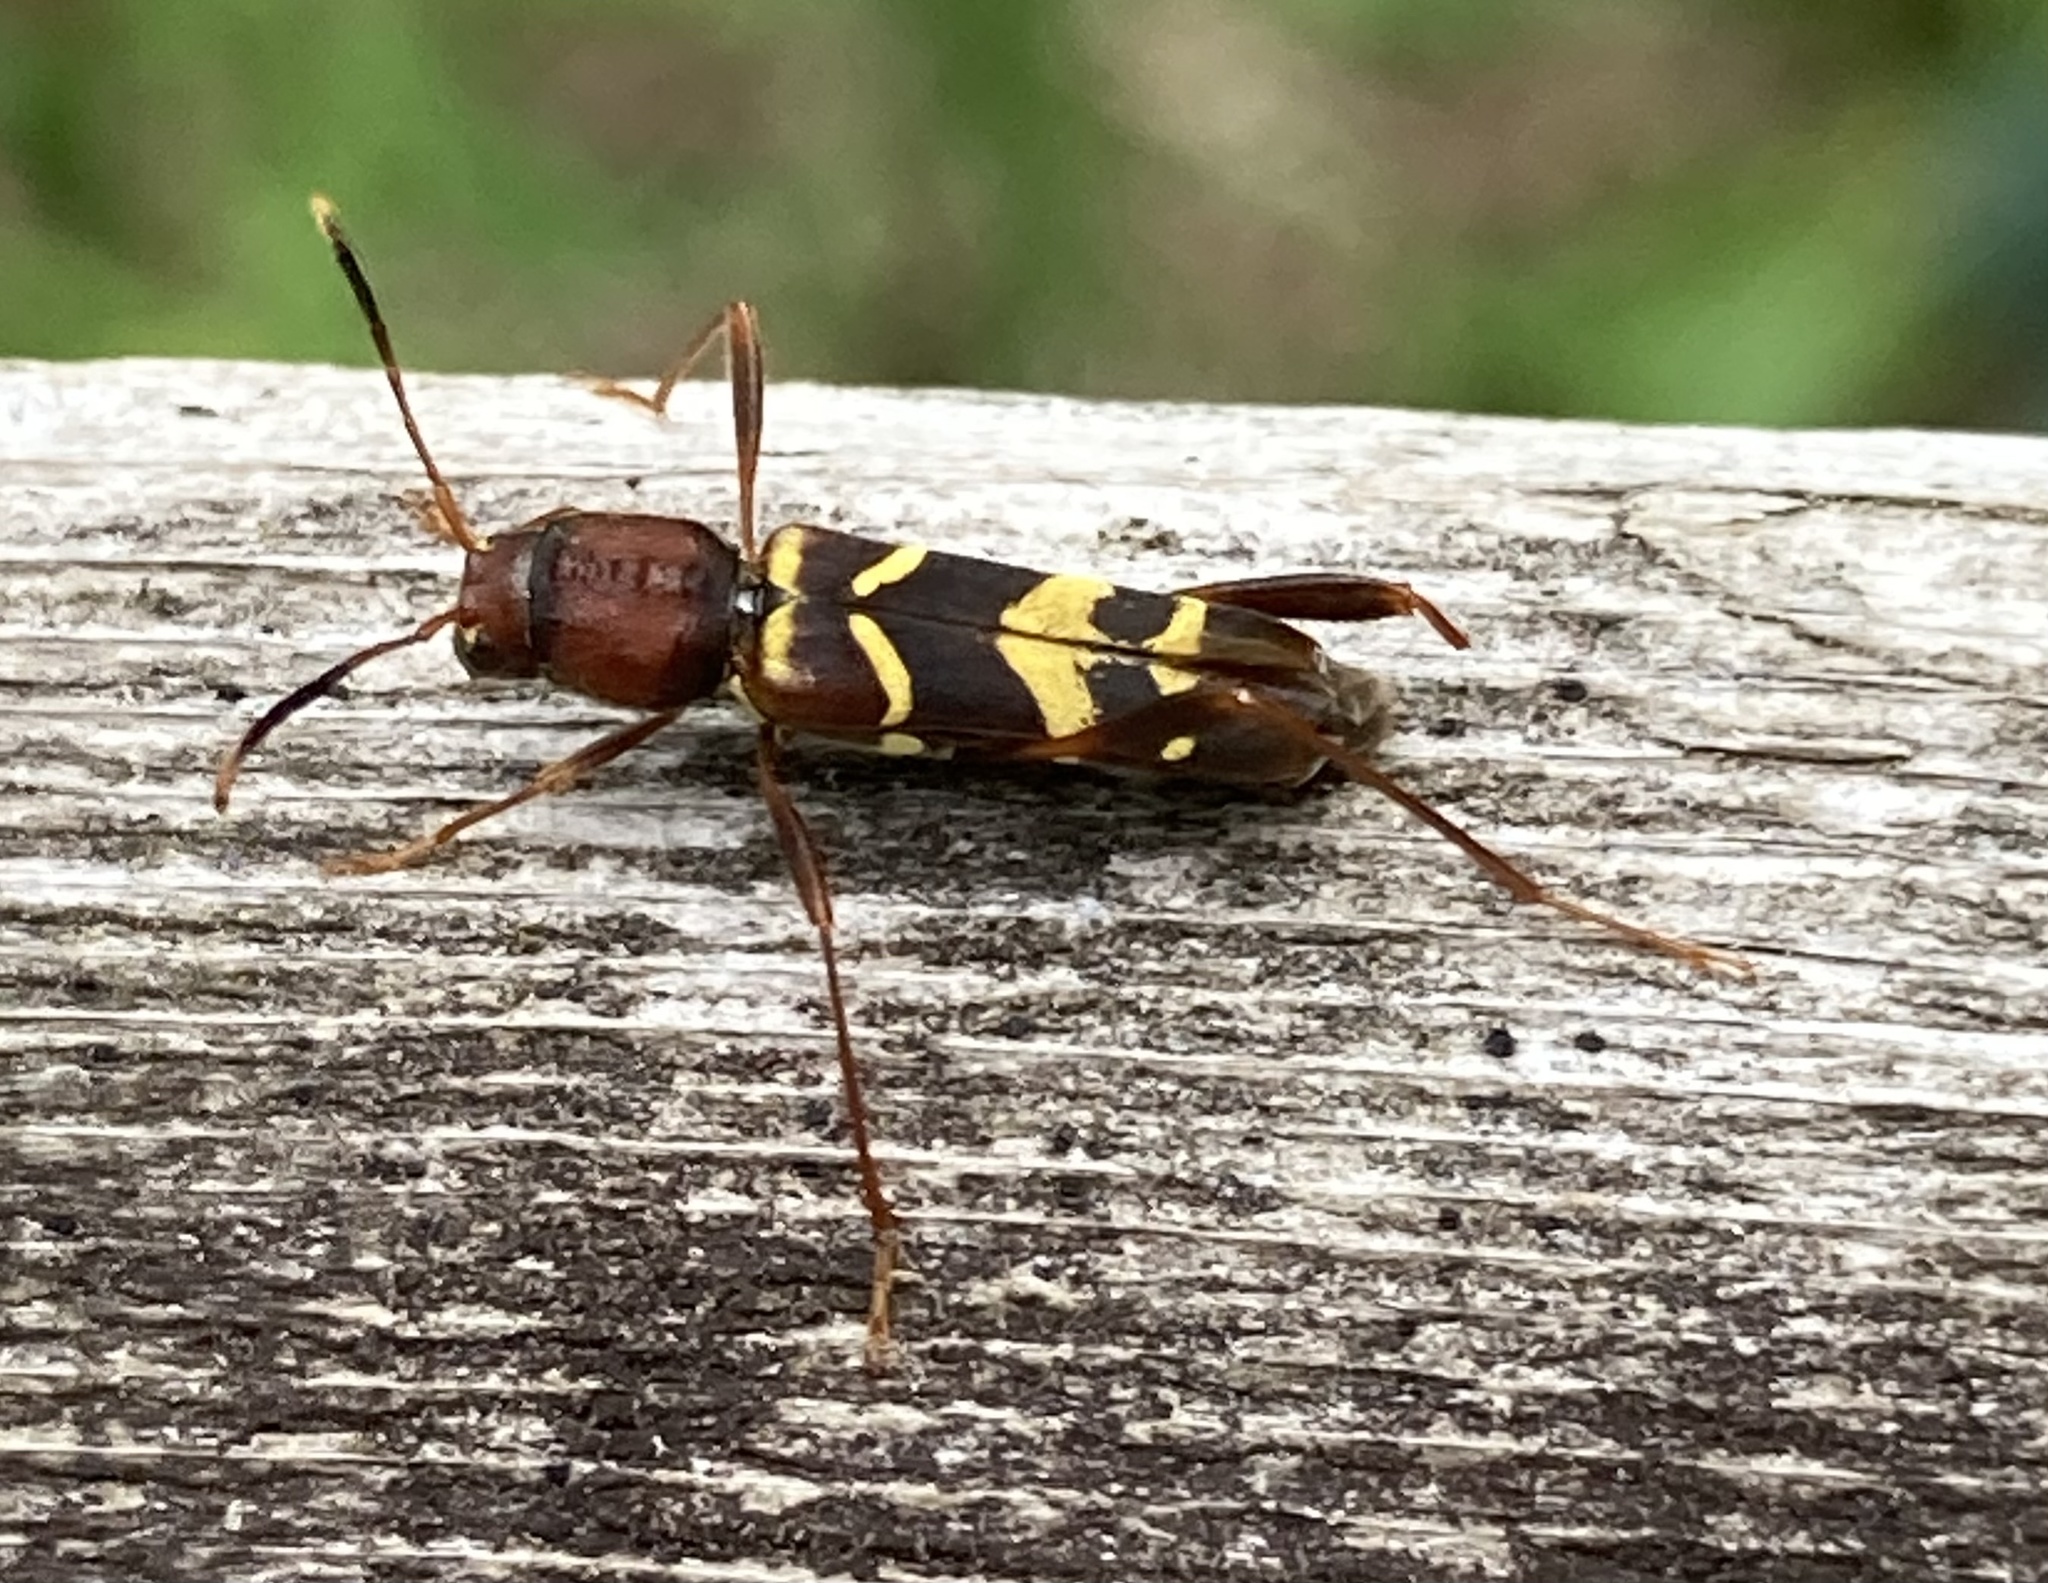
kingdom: Animalia
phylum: Arthropoda
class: Insecta
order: Coleoptera
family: Cerambycidae
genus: Neoclytus
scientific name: Neoclytus acuminatus
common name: Read-headed ash borer
